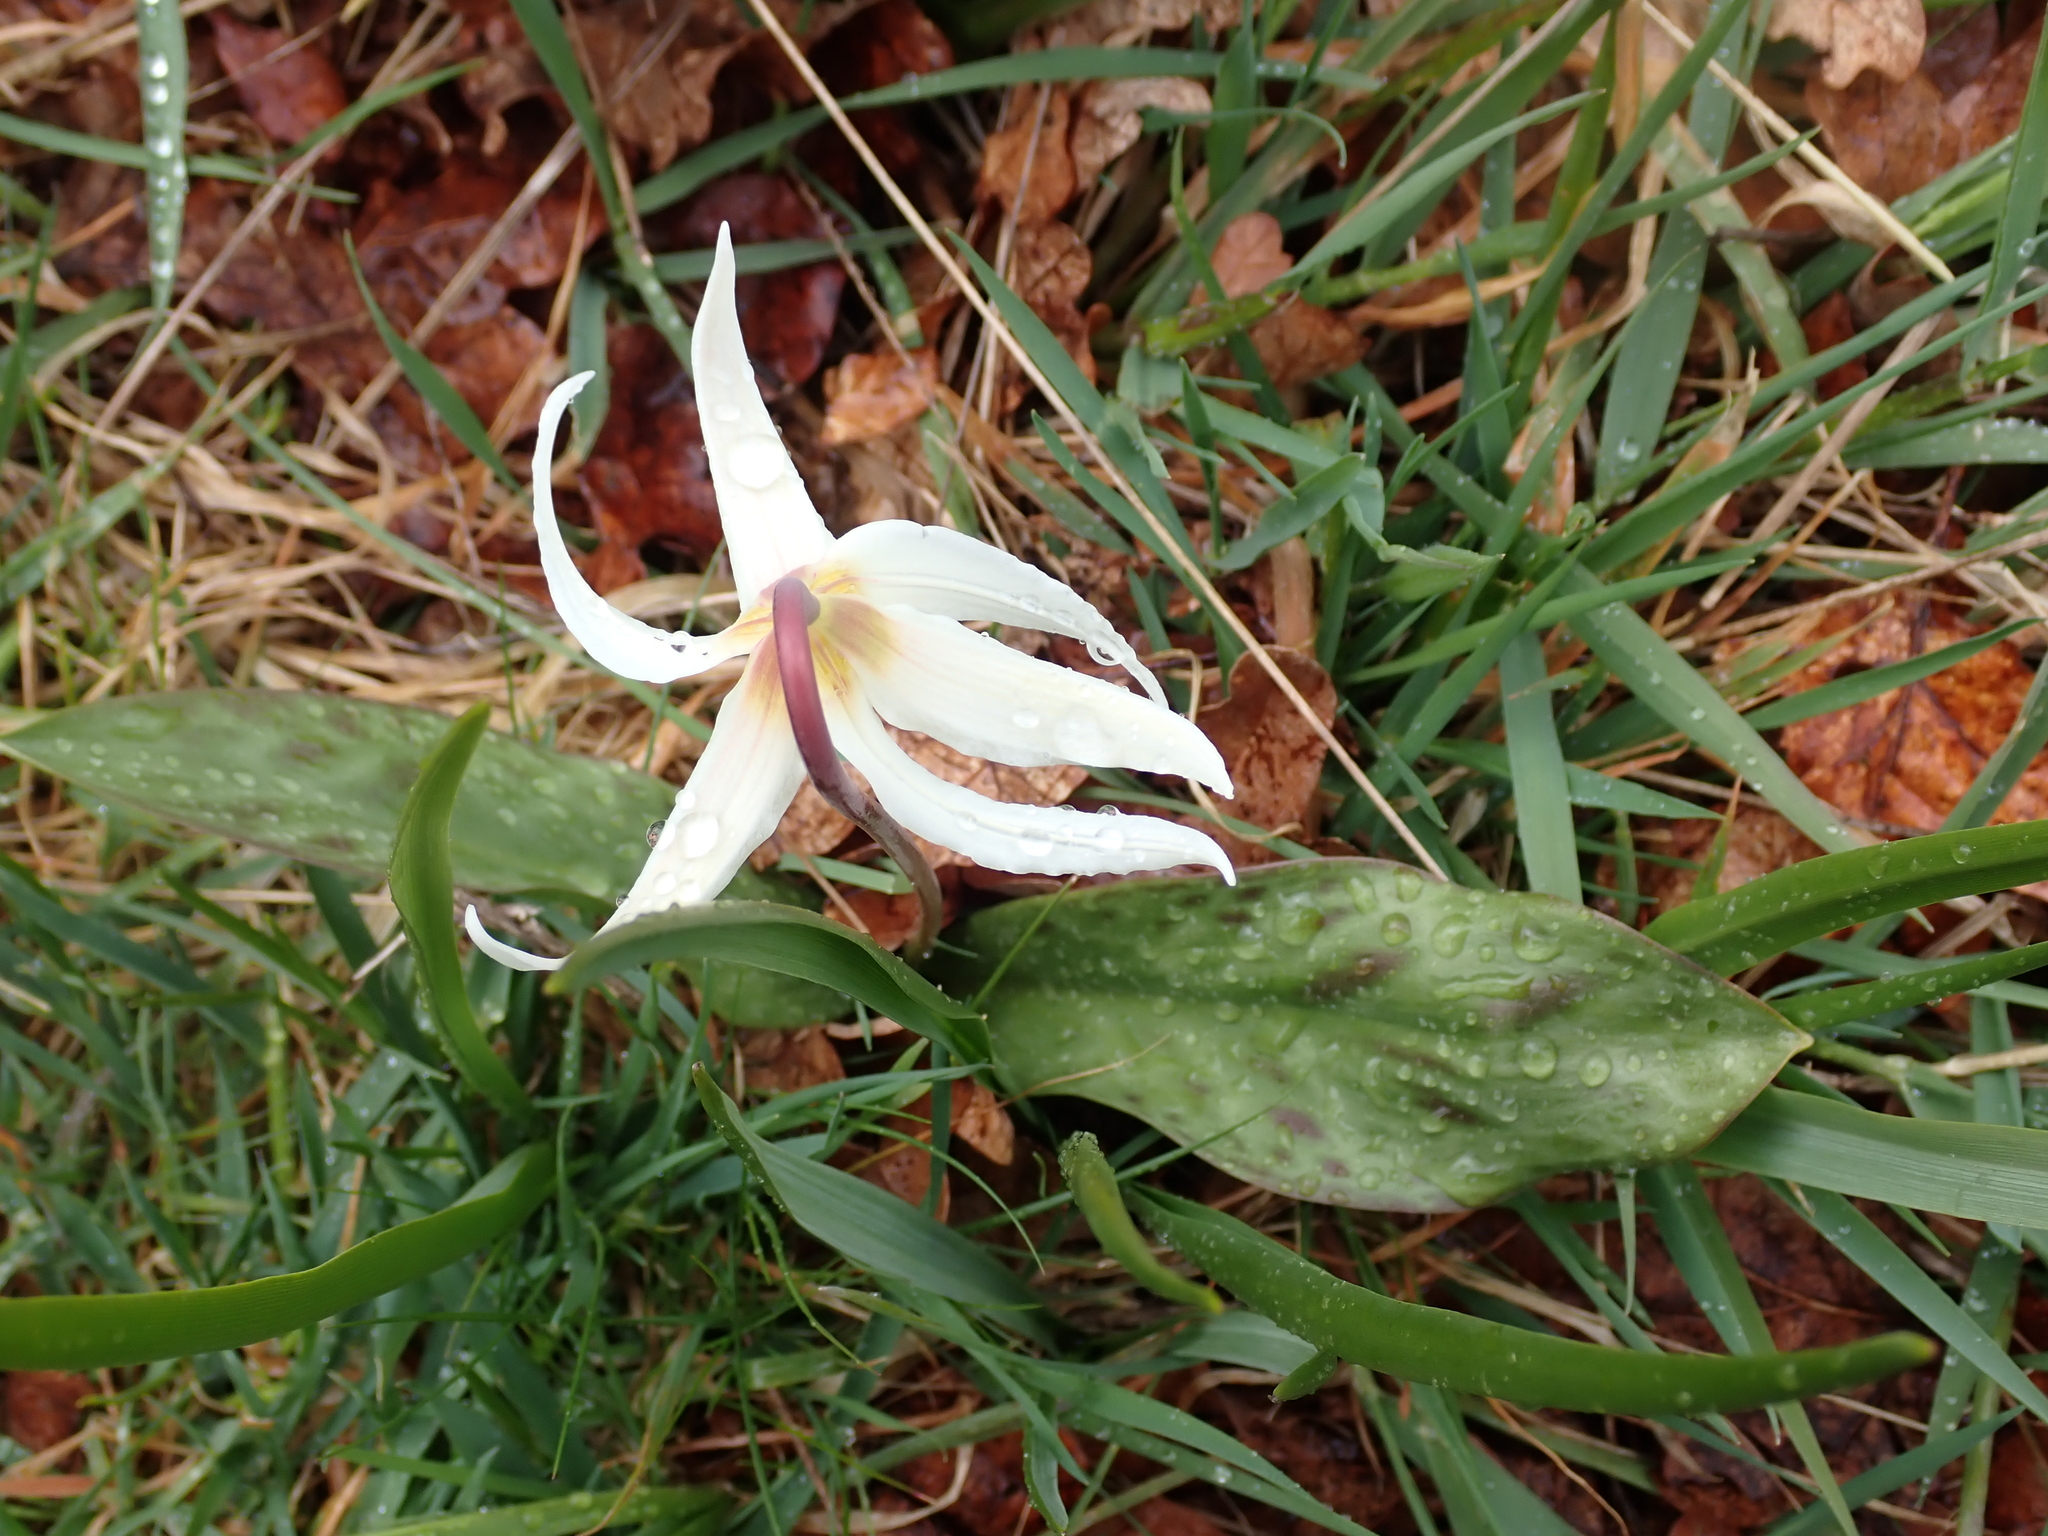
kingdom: Plantae
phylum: Tracheophyta
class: Liliopsida
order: Liliales
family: Liliaceae
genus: Erythronium
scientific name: Erythronium oregonum
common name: Giant adder's-tongue
